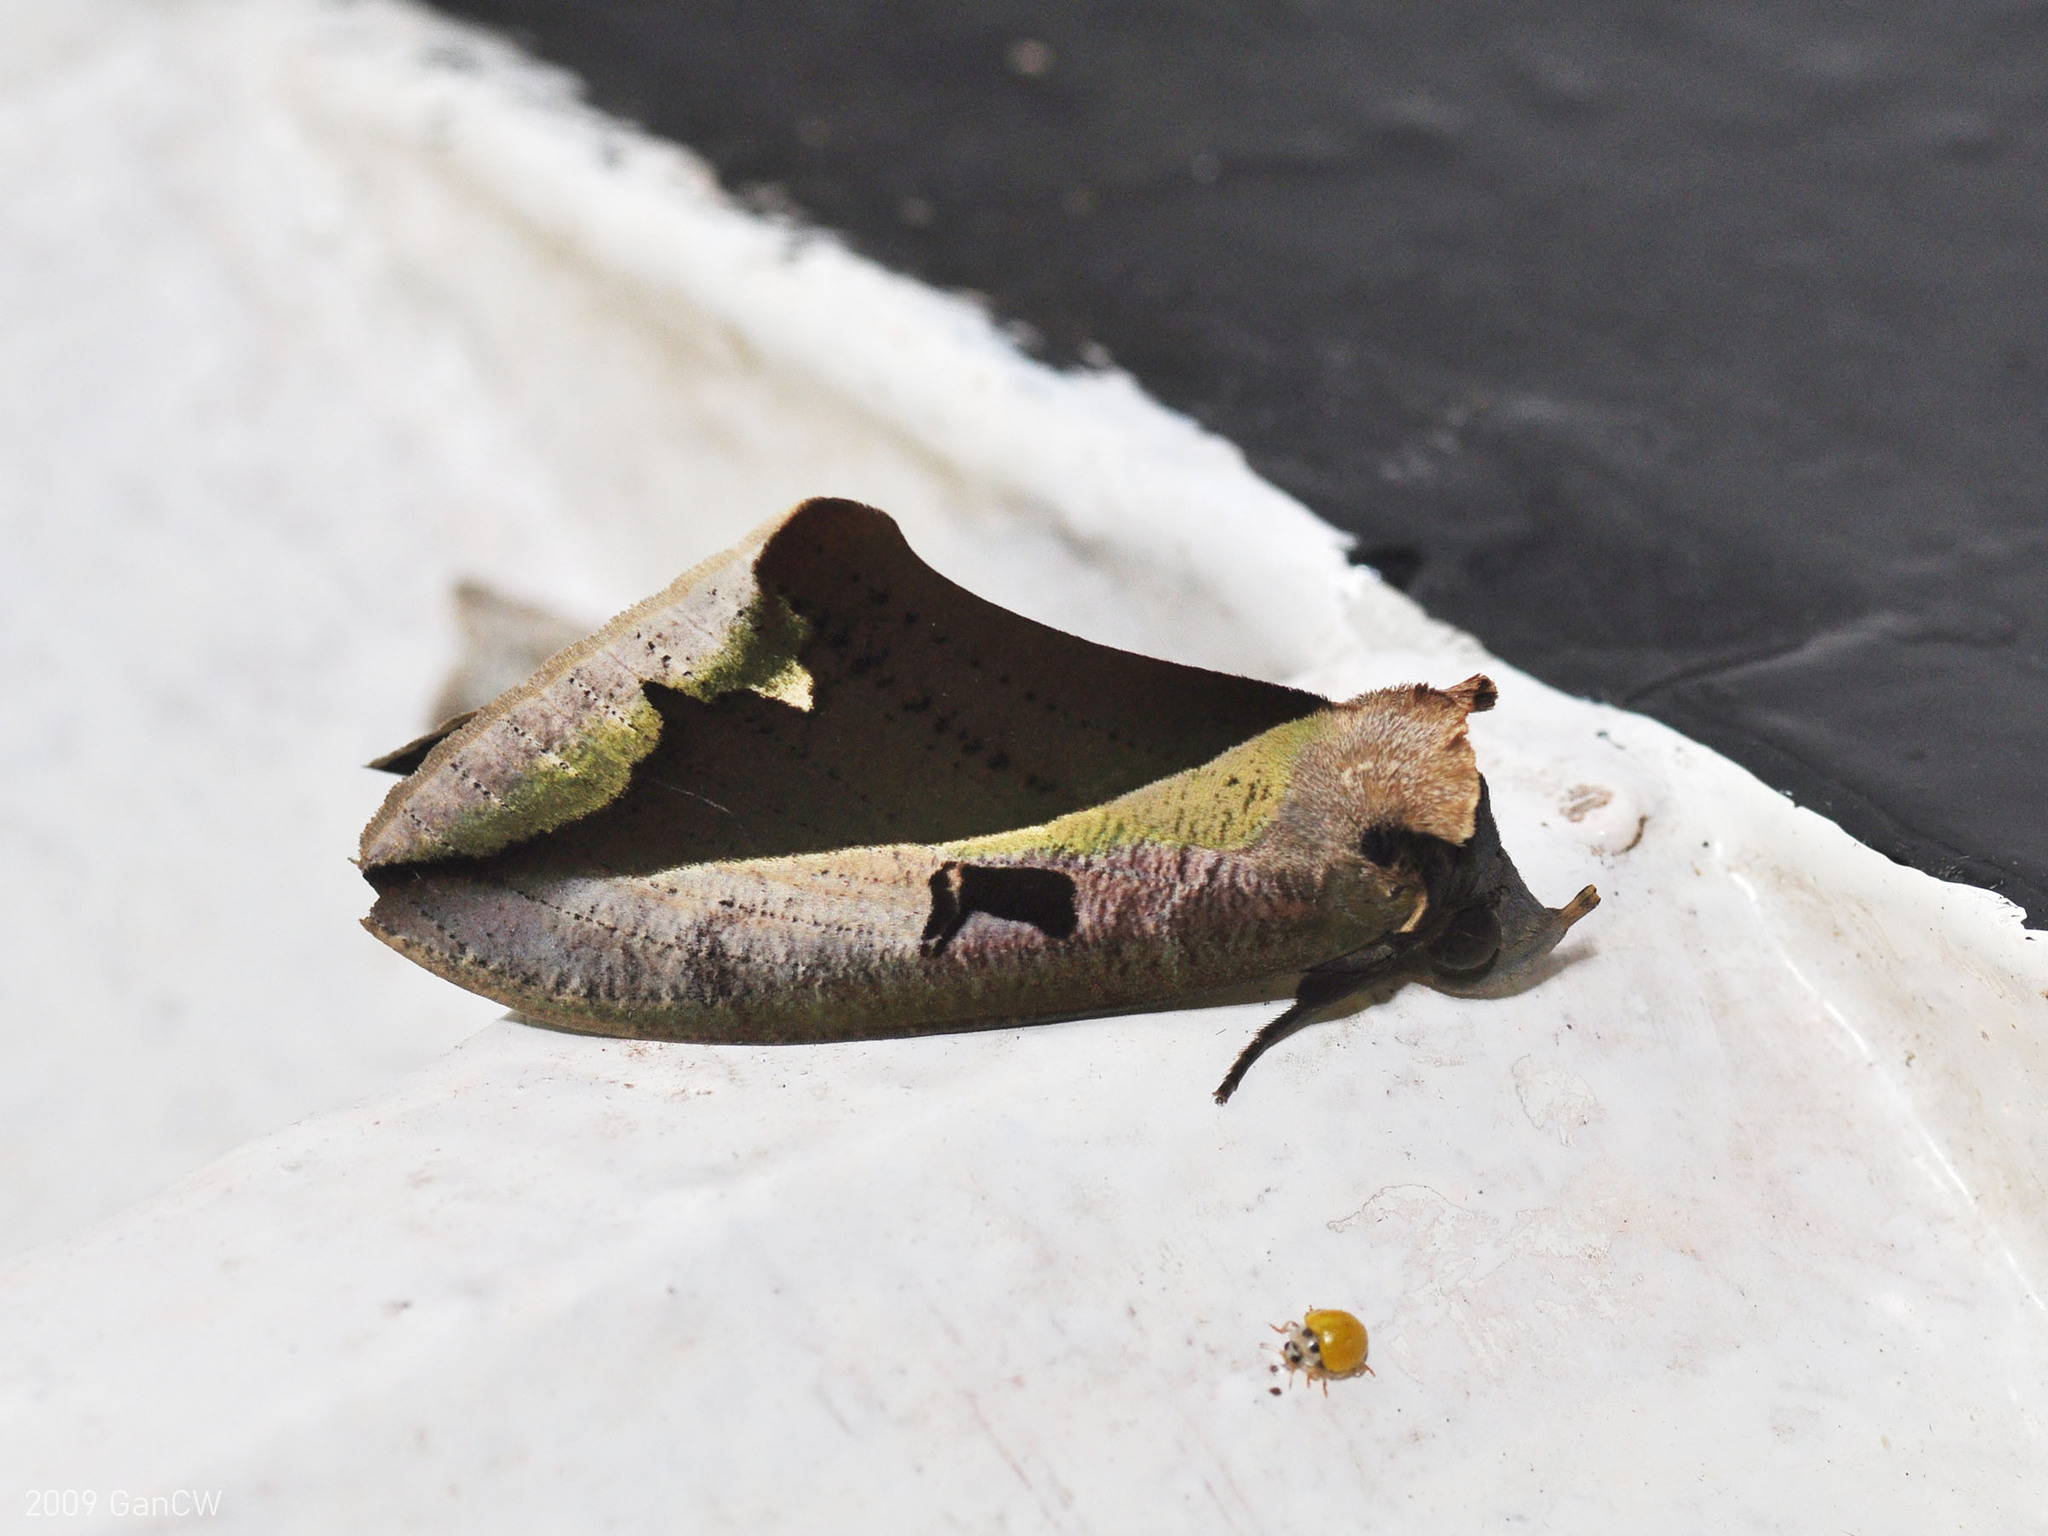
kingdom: Animalia
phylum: Arthropoda
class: Insecta
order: Lepidoptera
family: Erebidae
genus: Eudocima
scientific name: Eudocima dividens
